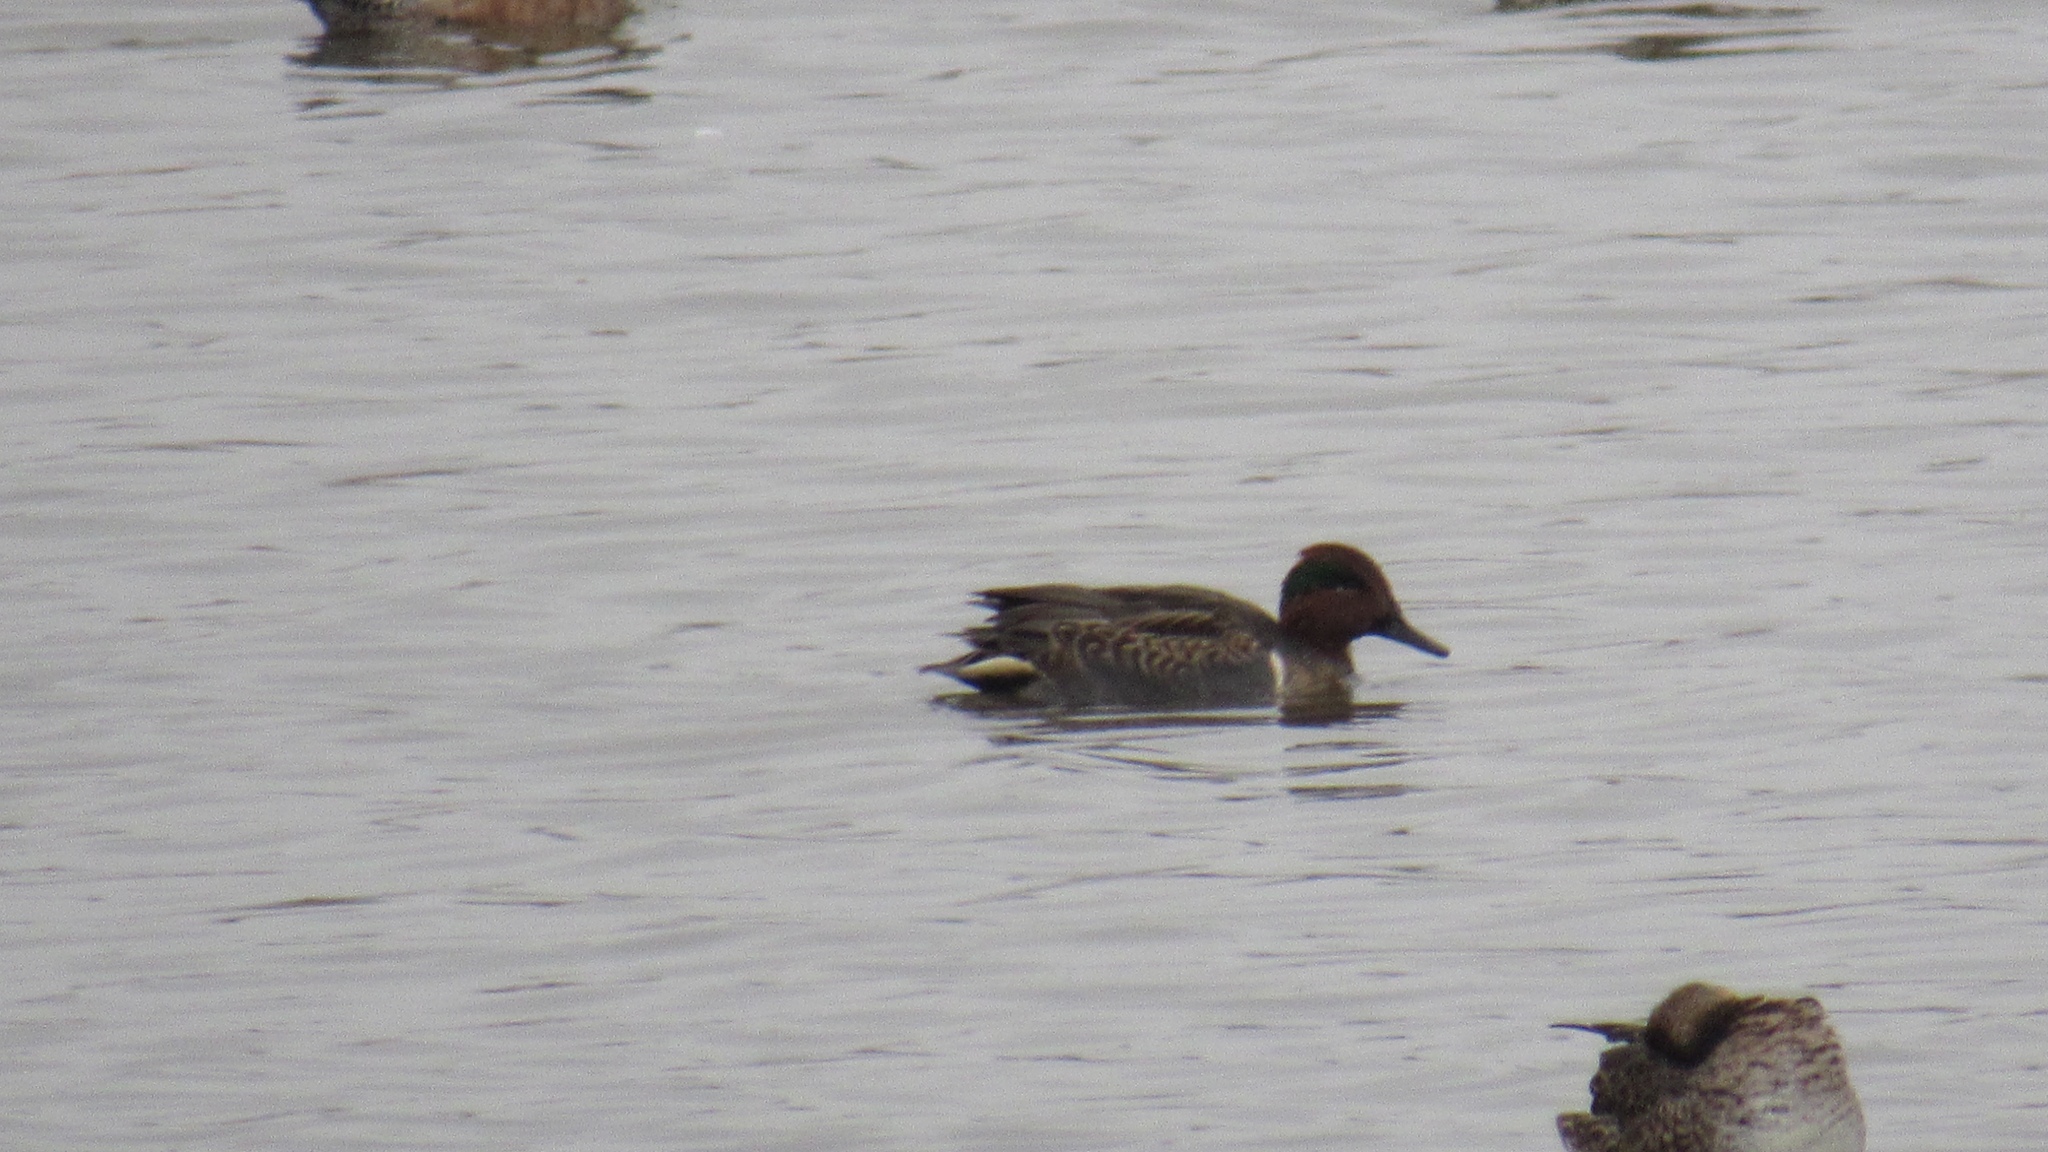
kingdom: Animalia
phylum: Chordata
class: Aves
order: Anseriformes
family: Anatidae
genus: Anas
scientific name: Anas crecca
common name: Eurasian teal
